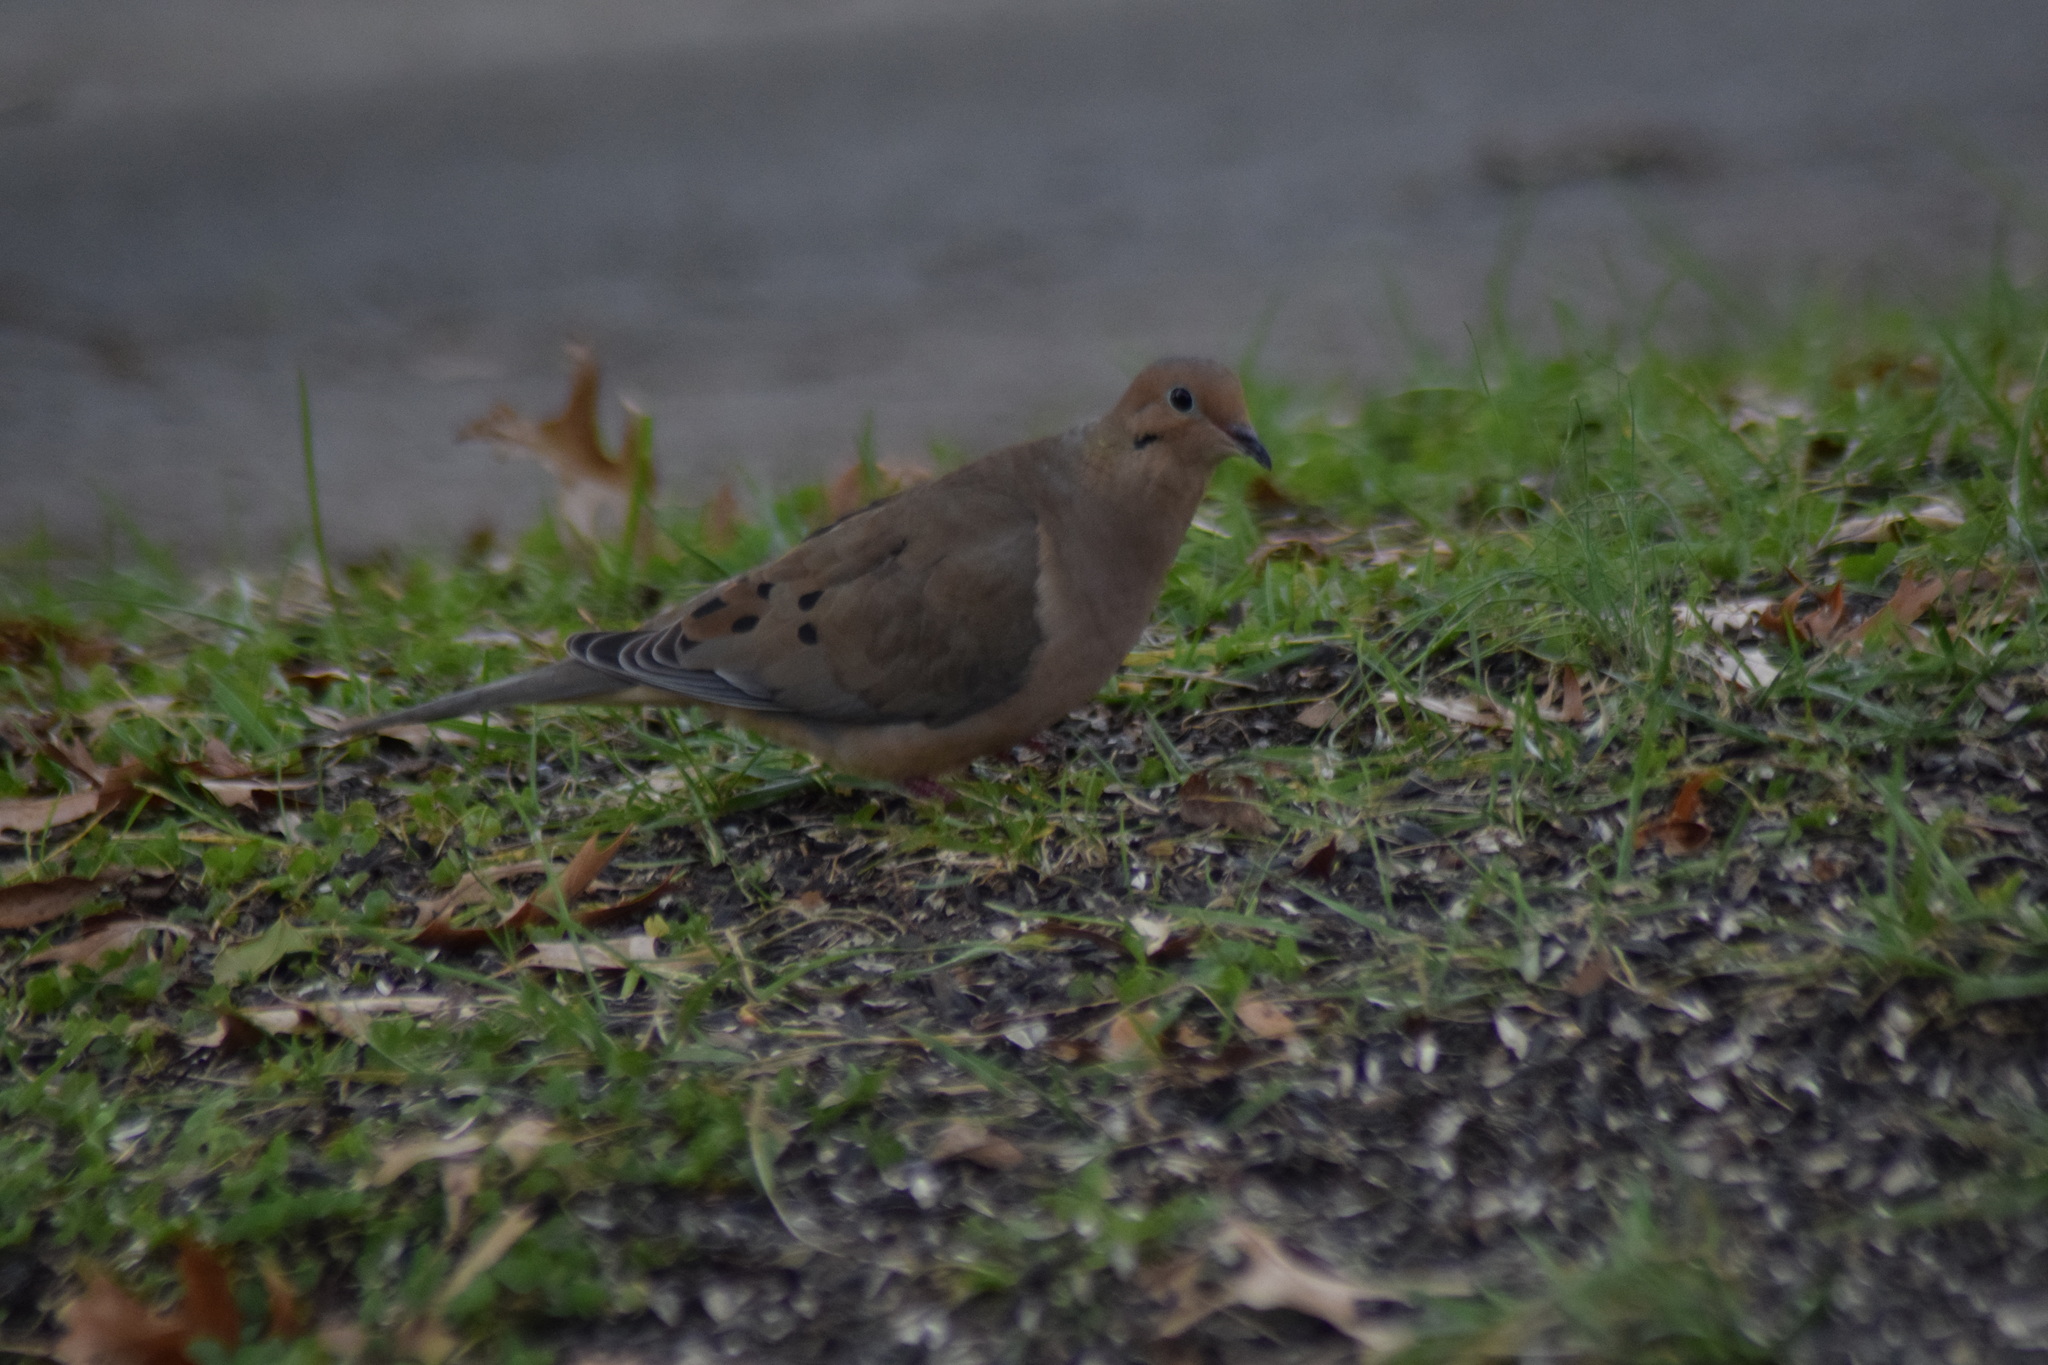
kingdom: Animalia
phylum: Chordata
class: Aves
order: Columbiformes
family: Columbidae
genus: Zenaida
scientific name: Zenaida macroura
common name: Mourning dove
